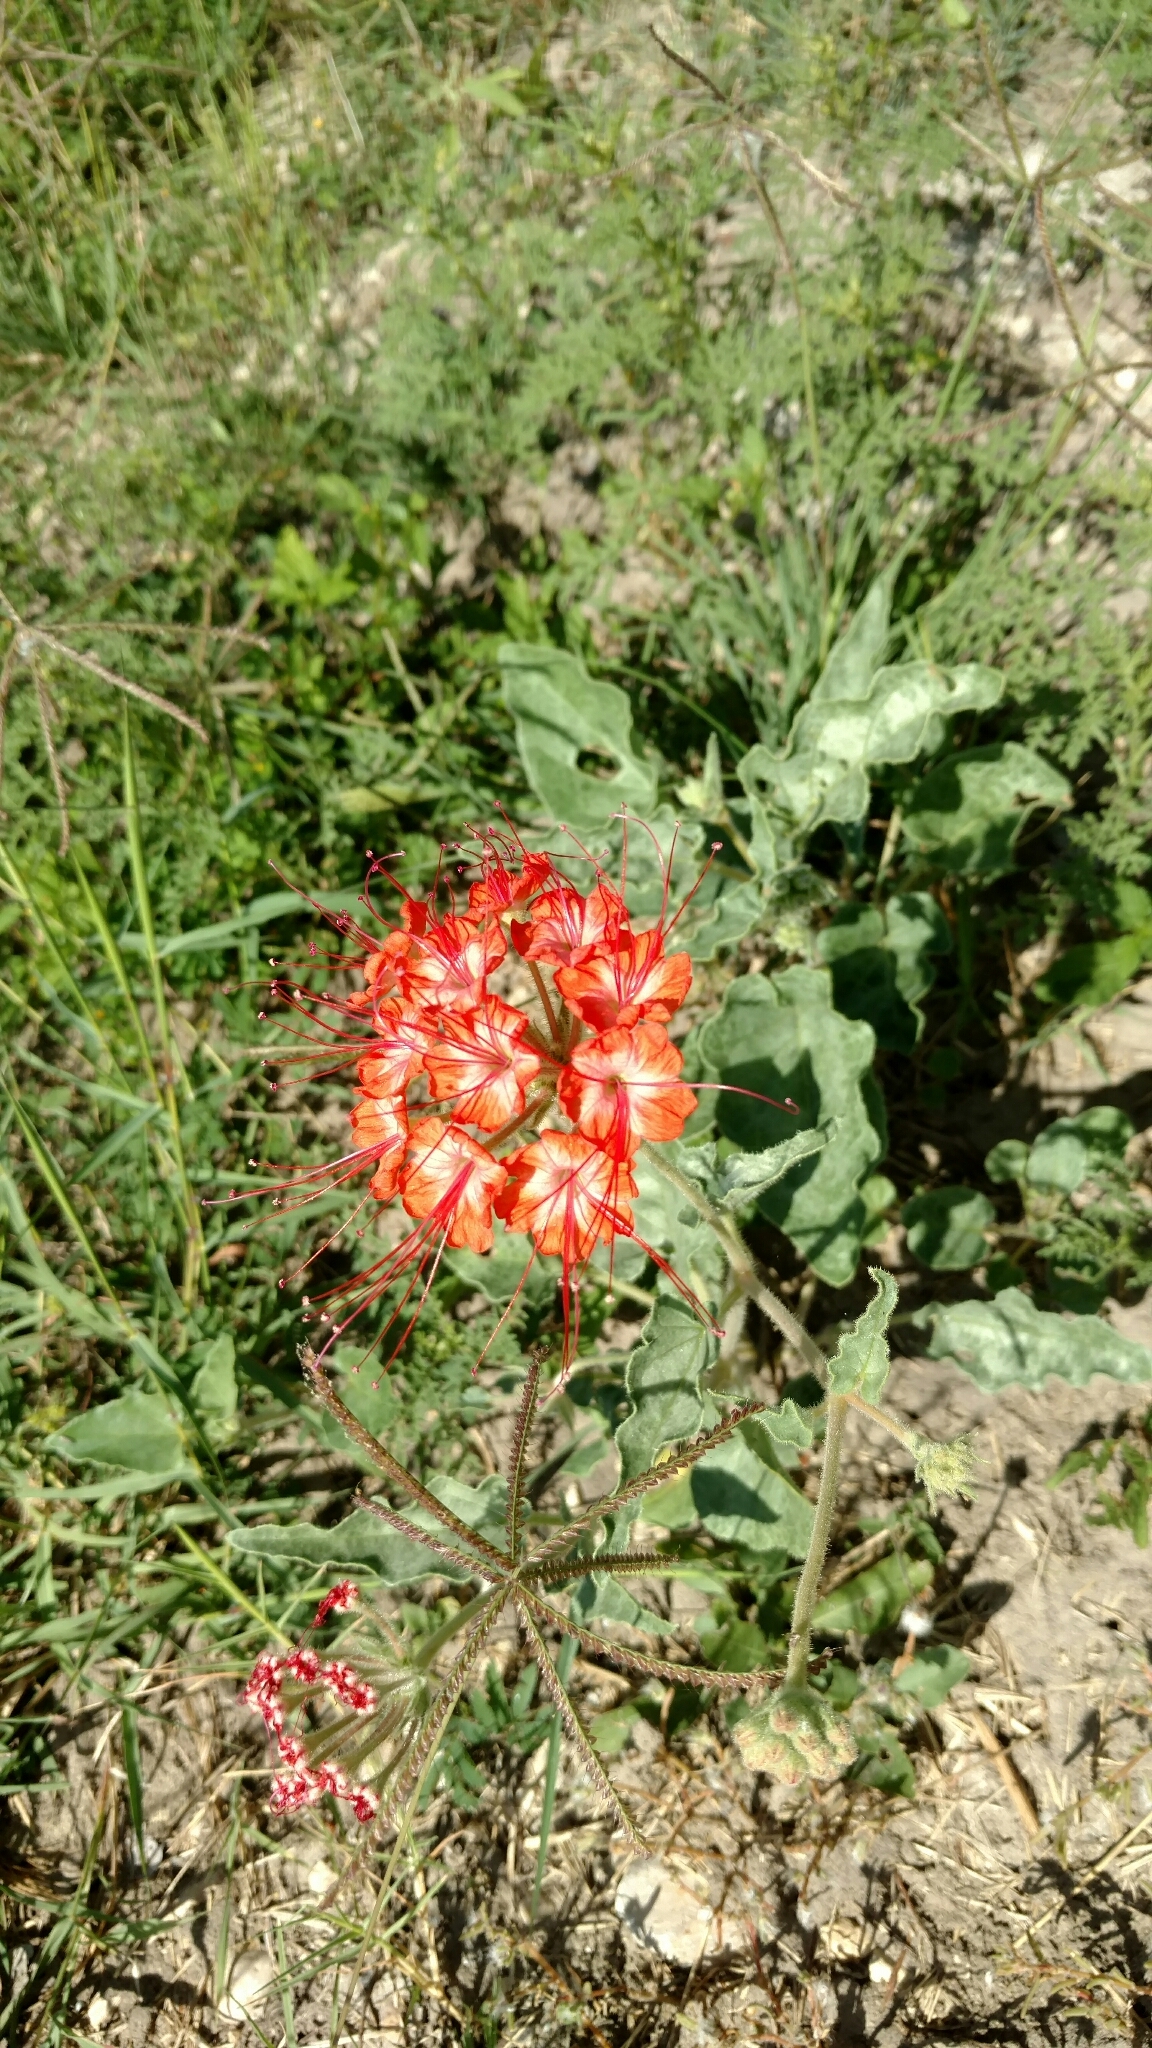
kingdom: Plantae
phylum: Tracheophyta
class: Magnoliopsida
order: Caryophyllales
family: Nyctaginaceae
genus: Nyctaginia
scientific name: Nyctaginia capitata
